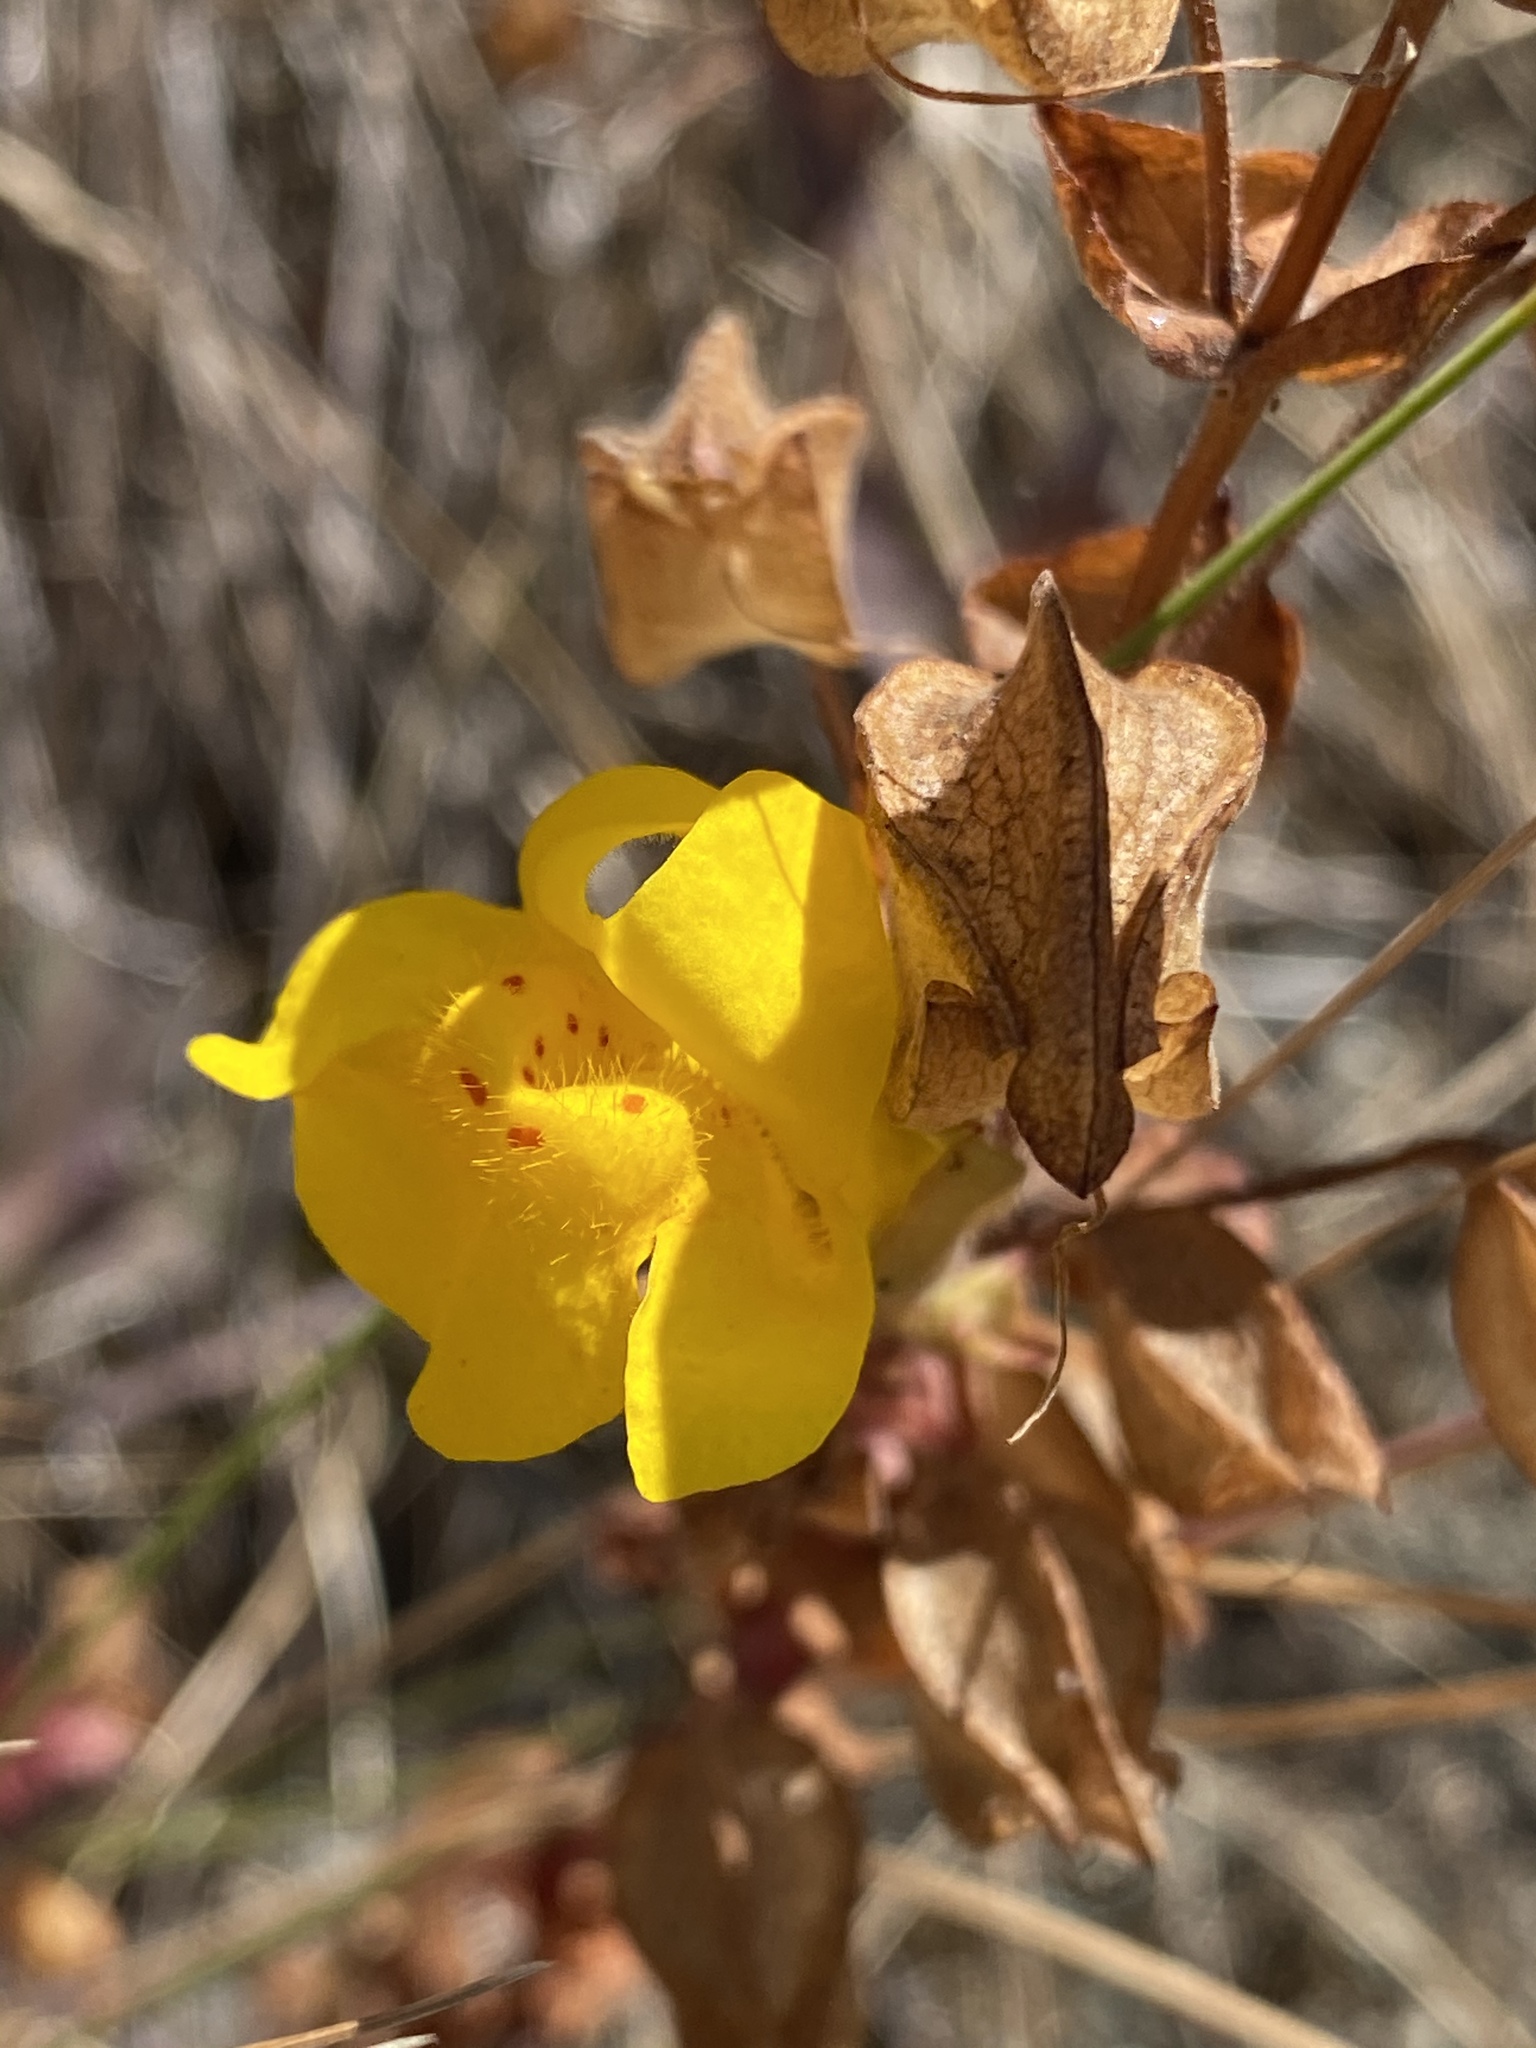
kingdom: Plantae
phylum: Tracheophyta
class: Magnoliopsida
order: Lamiales
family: Phrymaceae
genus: Erythranthe
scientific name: Erythranthe guttata
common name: Monkeyflower
